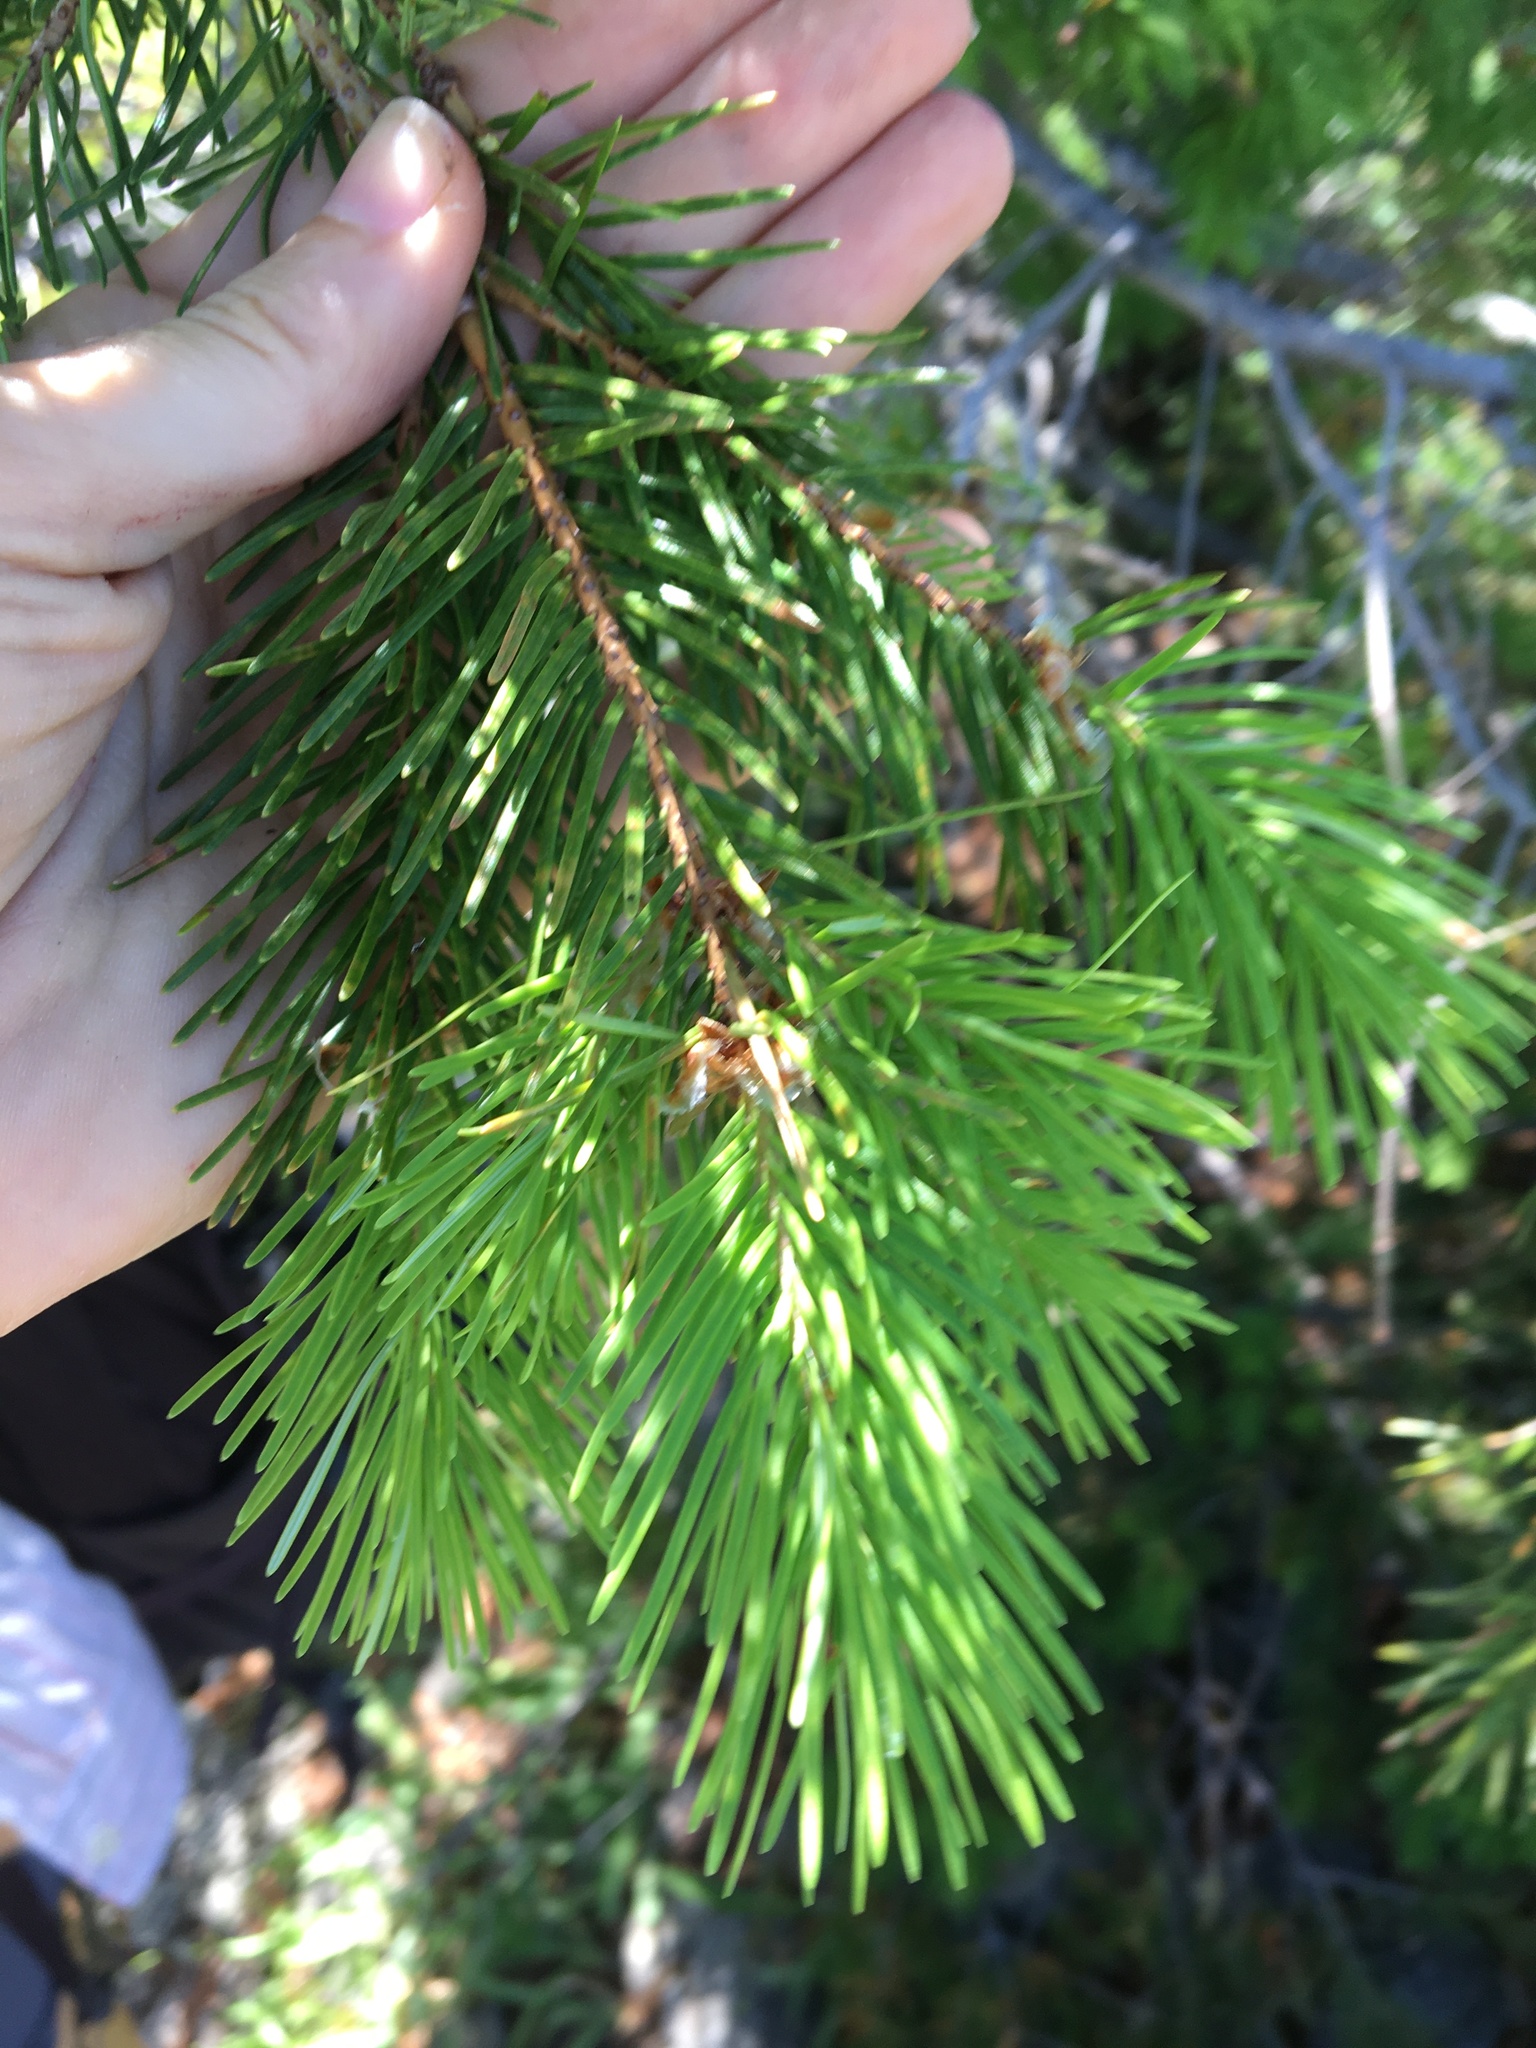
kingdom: Plantae
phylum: Tracheophyta
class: Pinopsida
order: Pinales
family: Pinaceae
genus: Pseudotsuga
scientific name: Pseudotsuga menziesii
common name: Douglas fir
